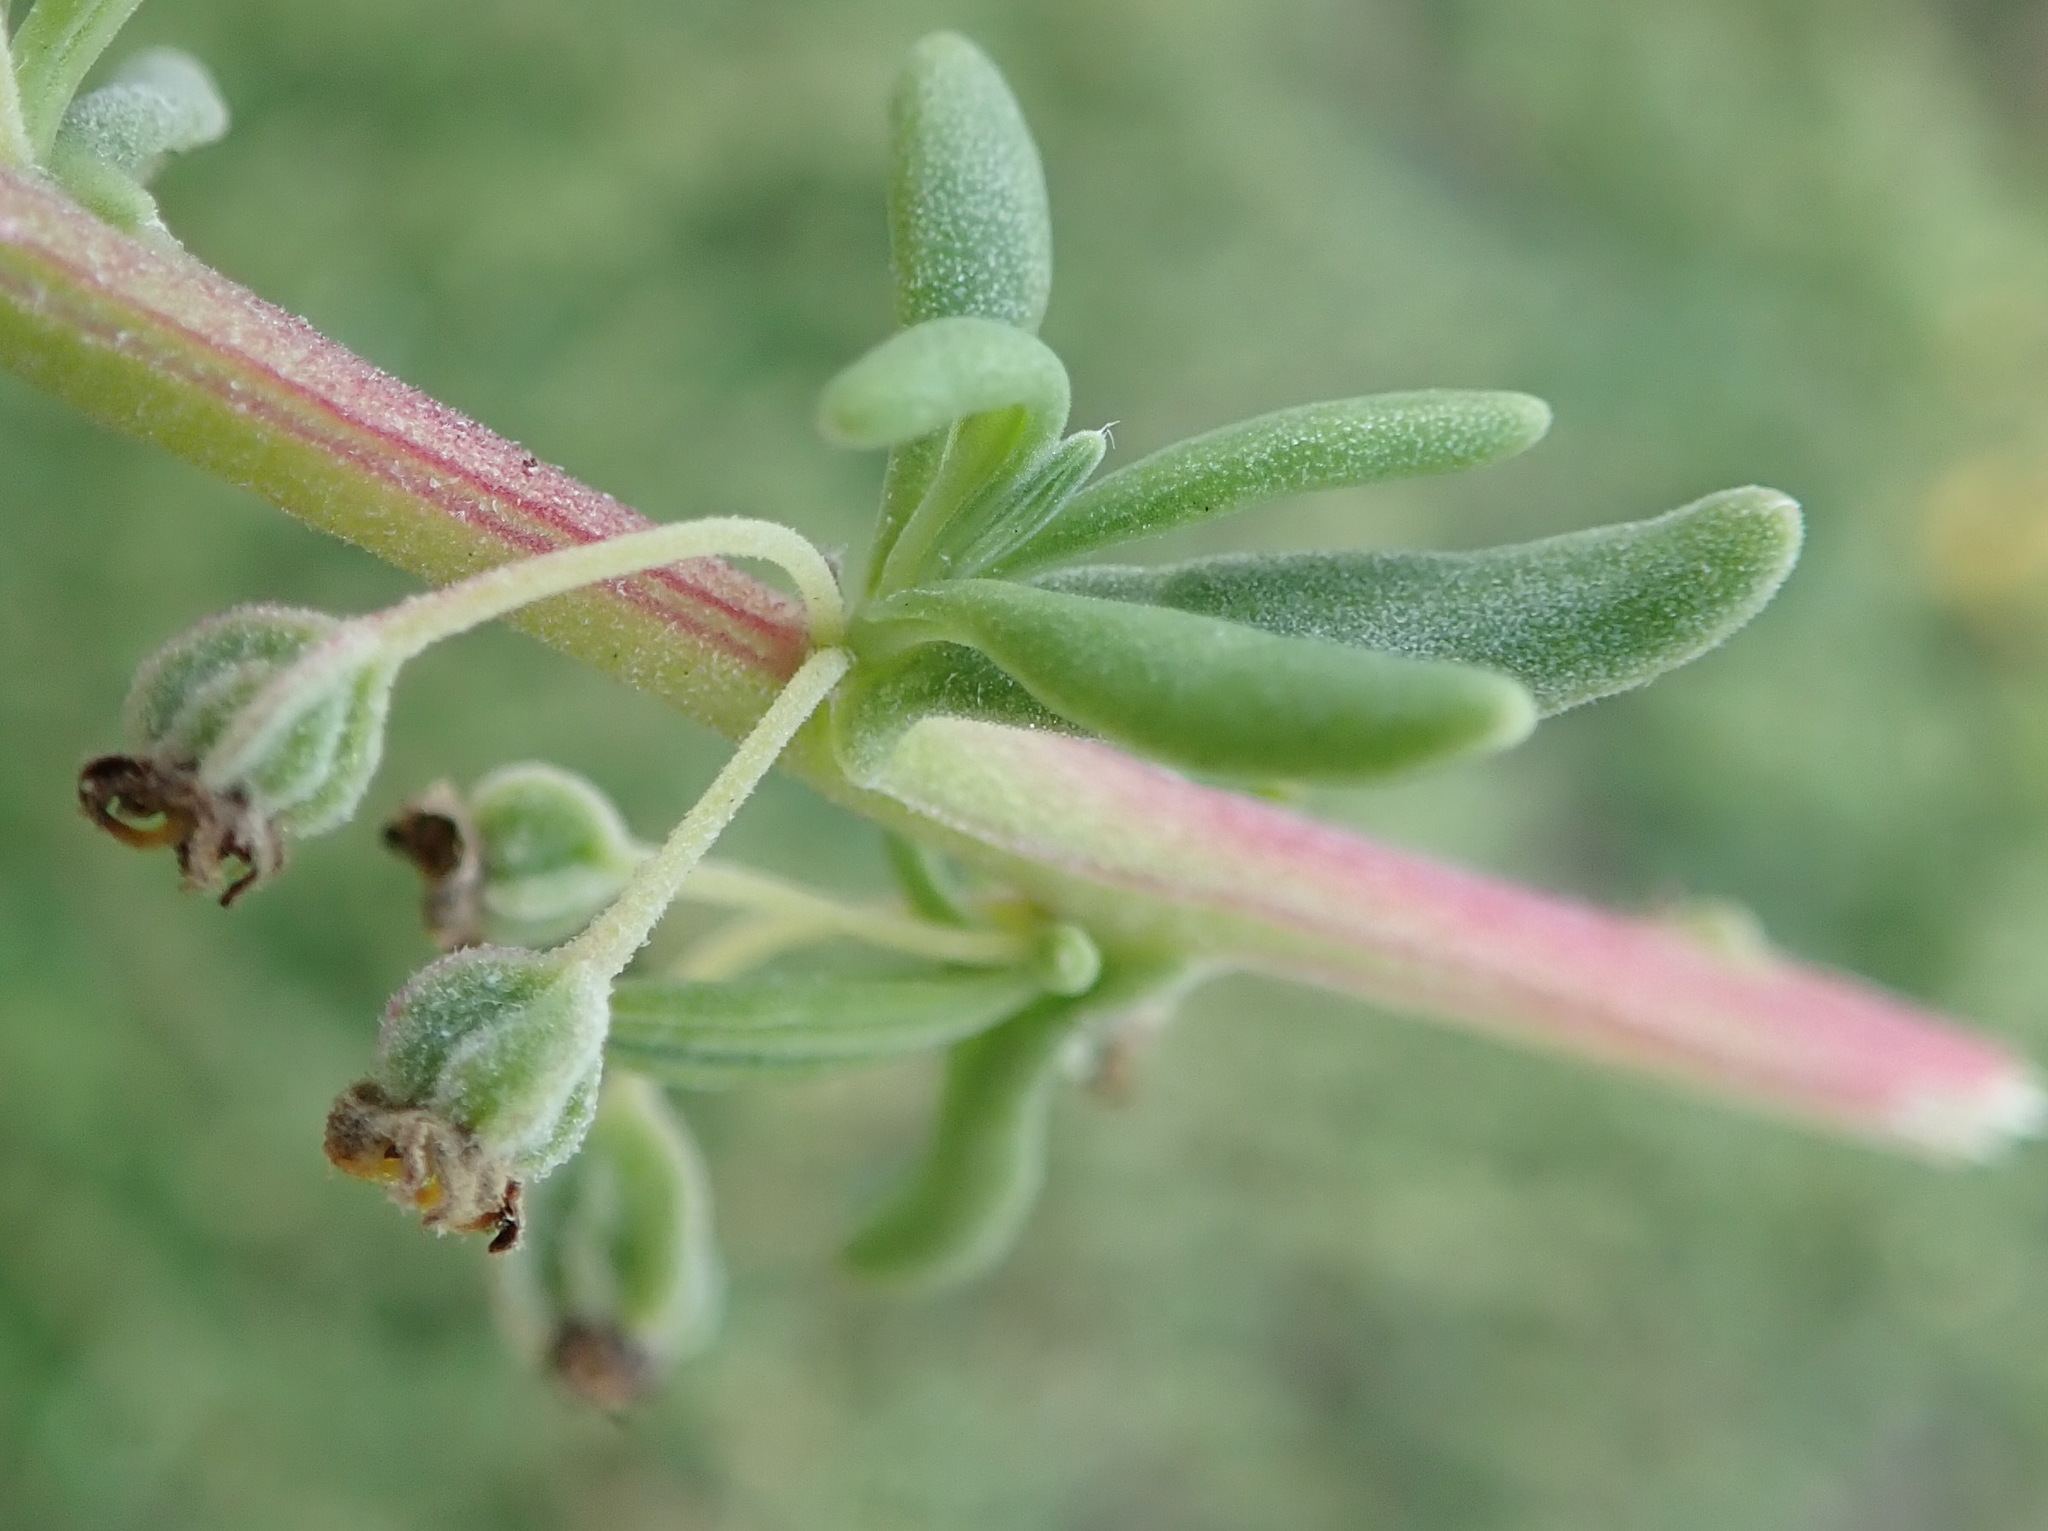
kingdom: Plantae
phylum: Tracheophyta
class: Magnoliopsida
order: Caryophyllales
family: Aizoaceae
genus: Tetragonia
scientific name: Tetragonia fruticosa
